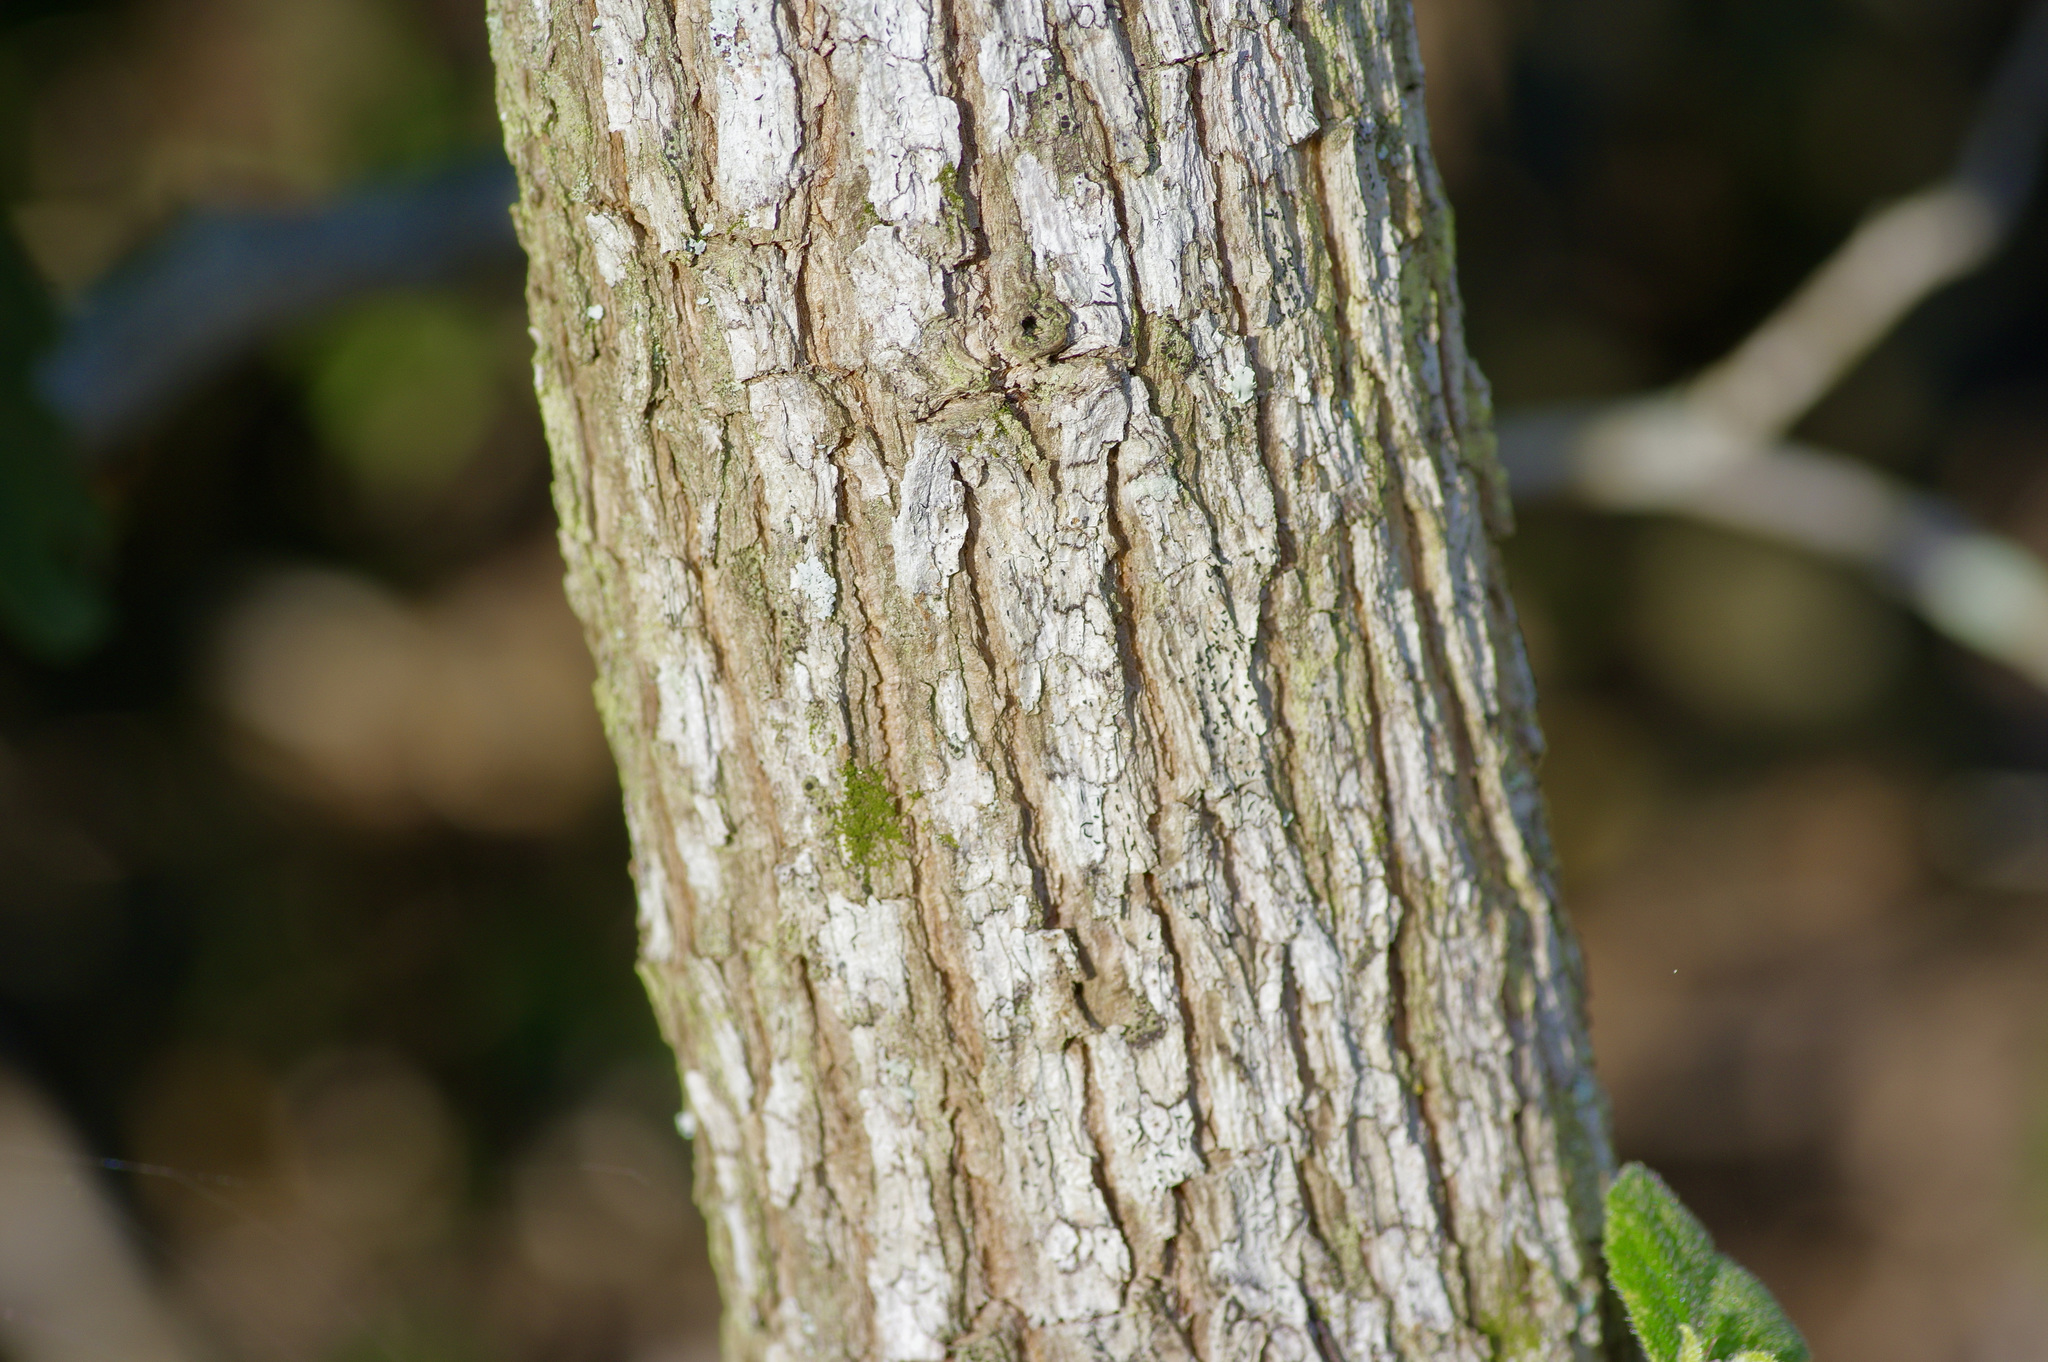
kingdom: Plantae
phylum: Tracheophyta
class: Magnoliopsida
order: Boraginales
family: Ehretiaceae
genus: Ehretia
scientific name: Ehretia anacua
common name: Sugarberry
